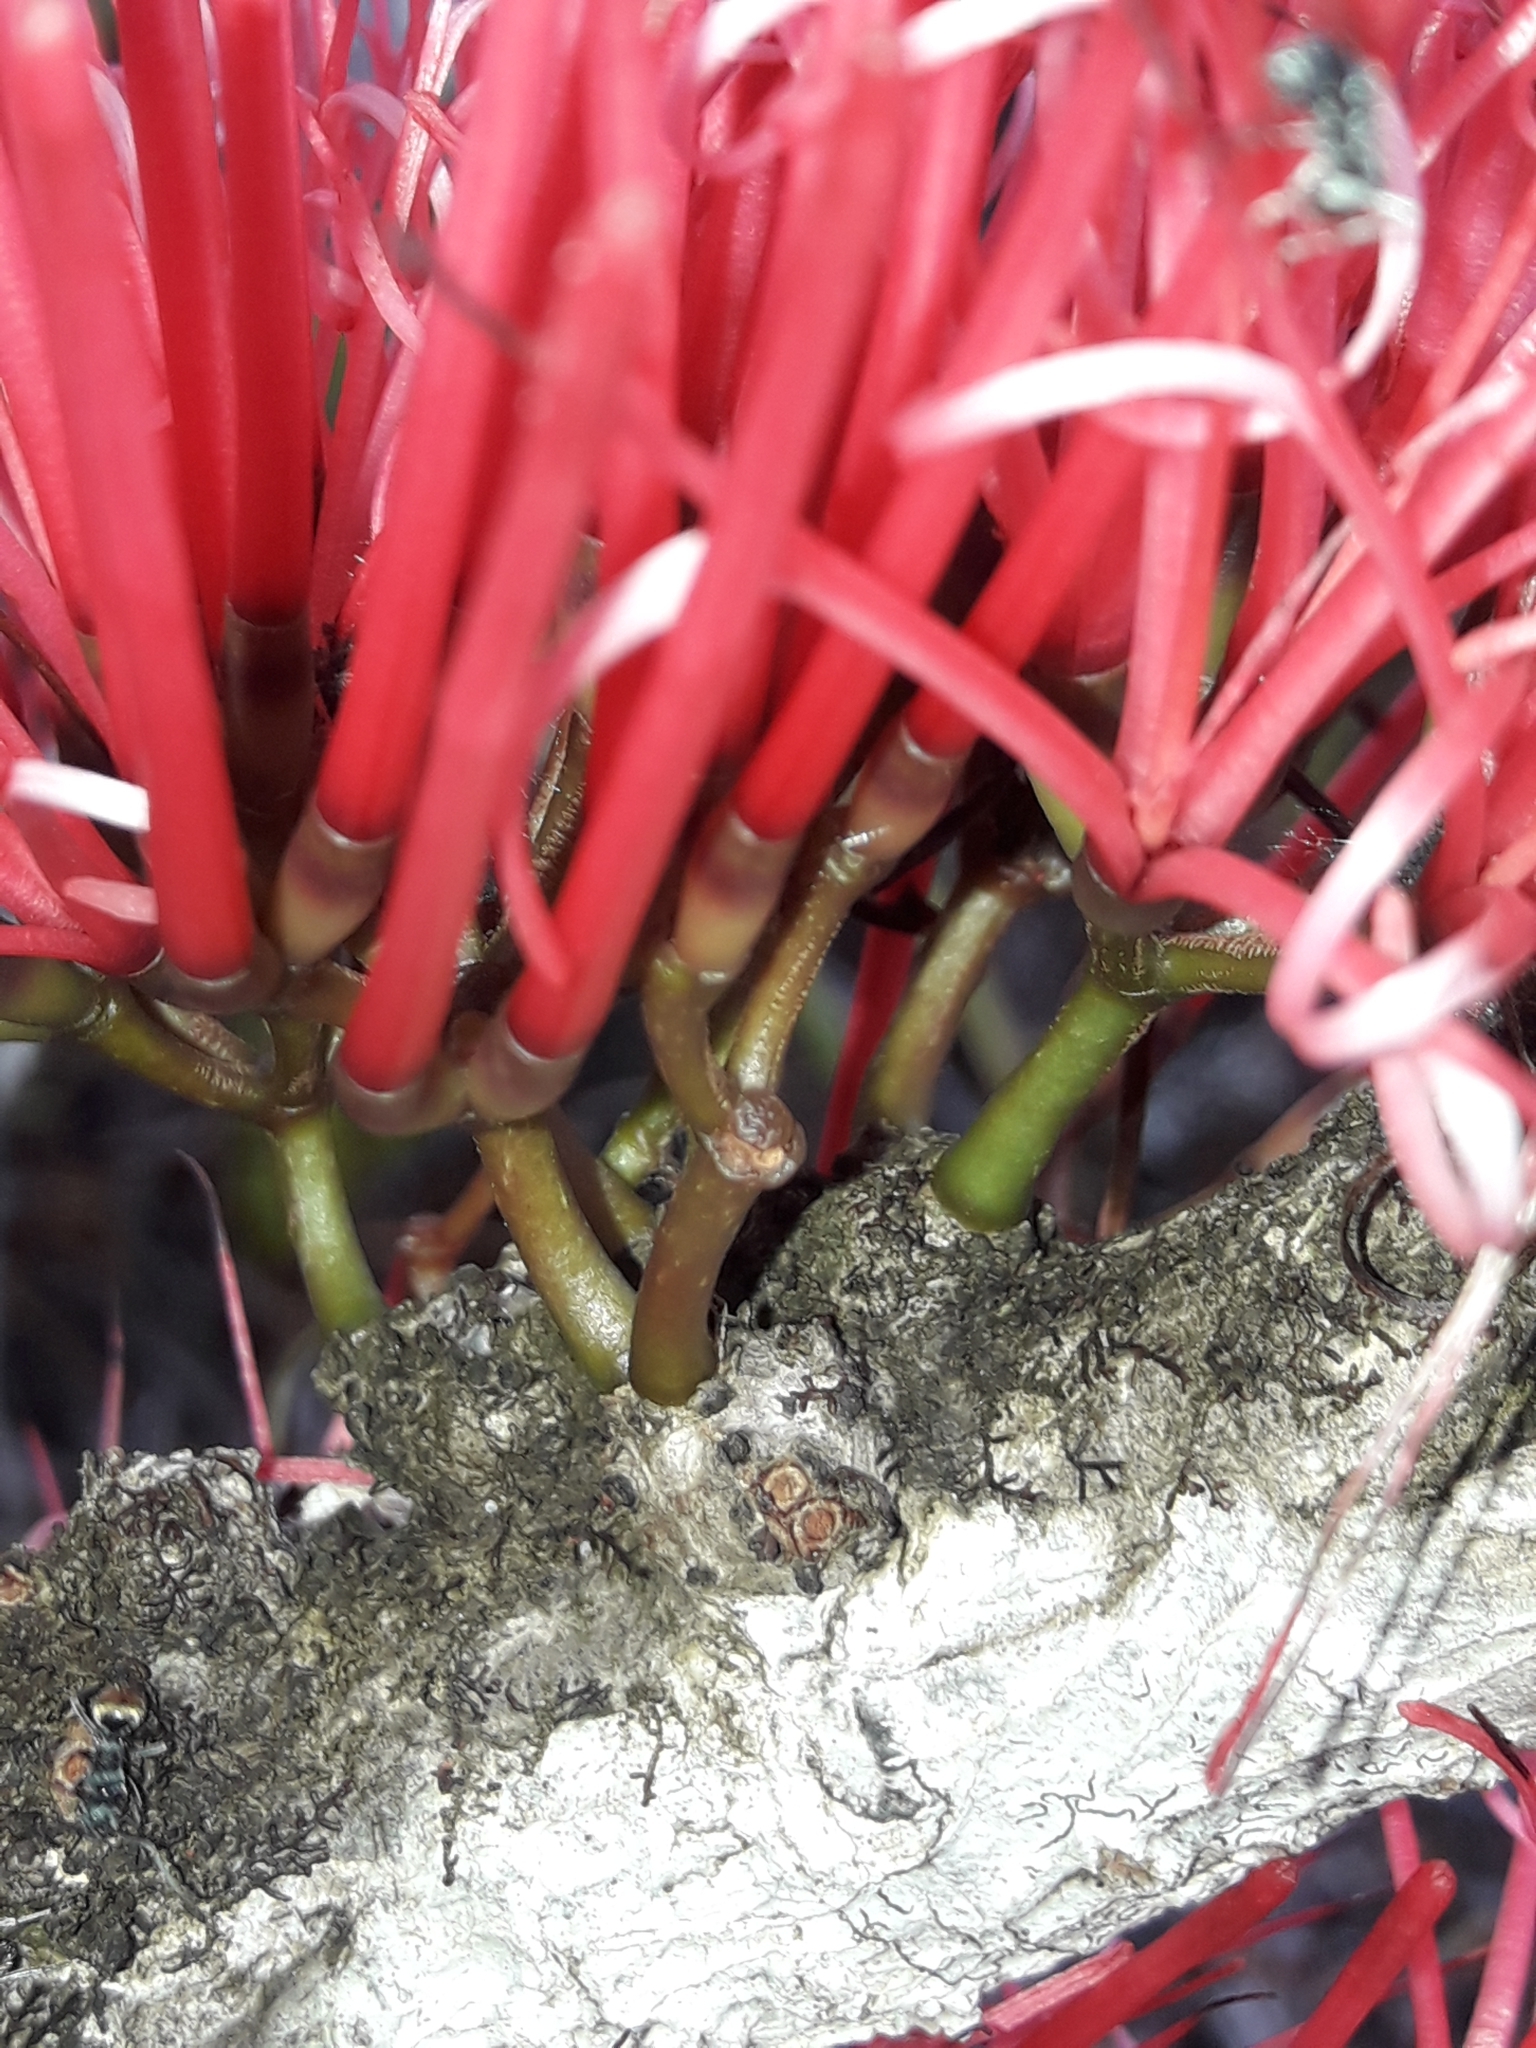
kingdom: Plantae
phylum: Tracheophyta
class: Magnoliopsida
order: Santalales
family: Loranthaceae
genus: Amyema
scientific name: Amyema scandens
